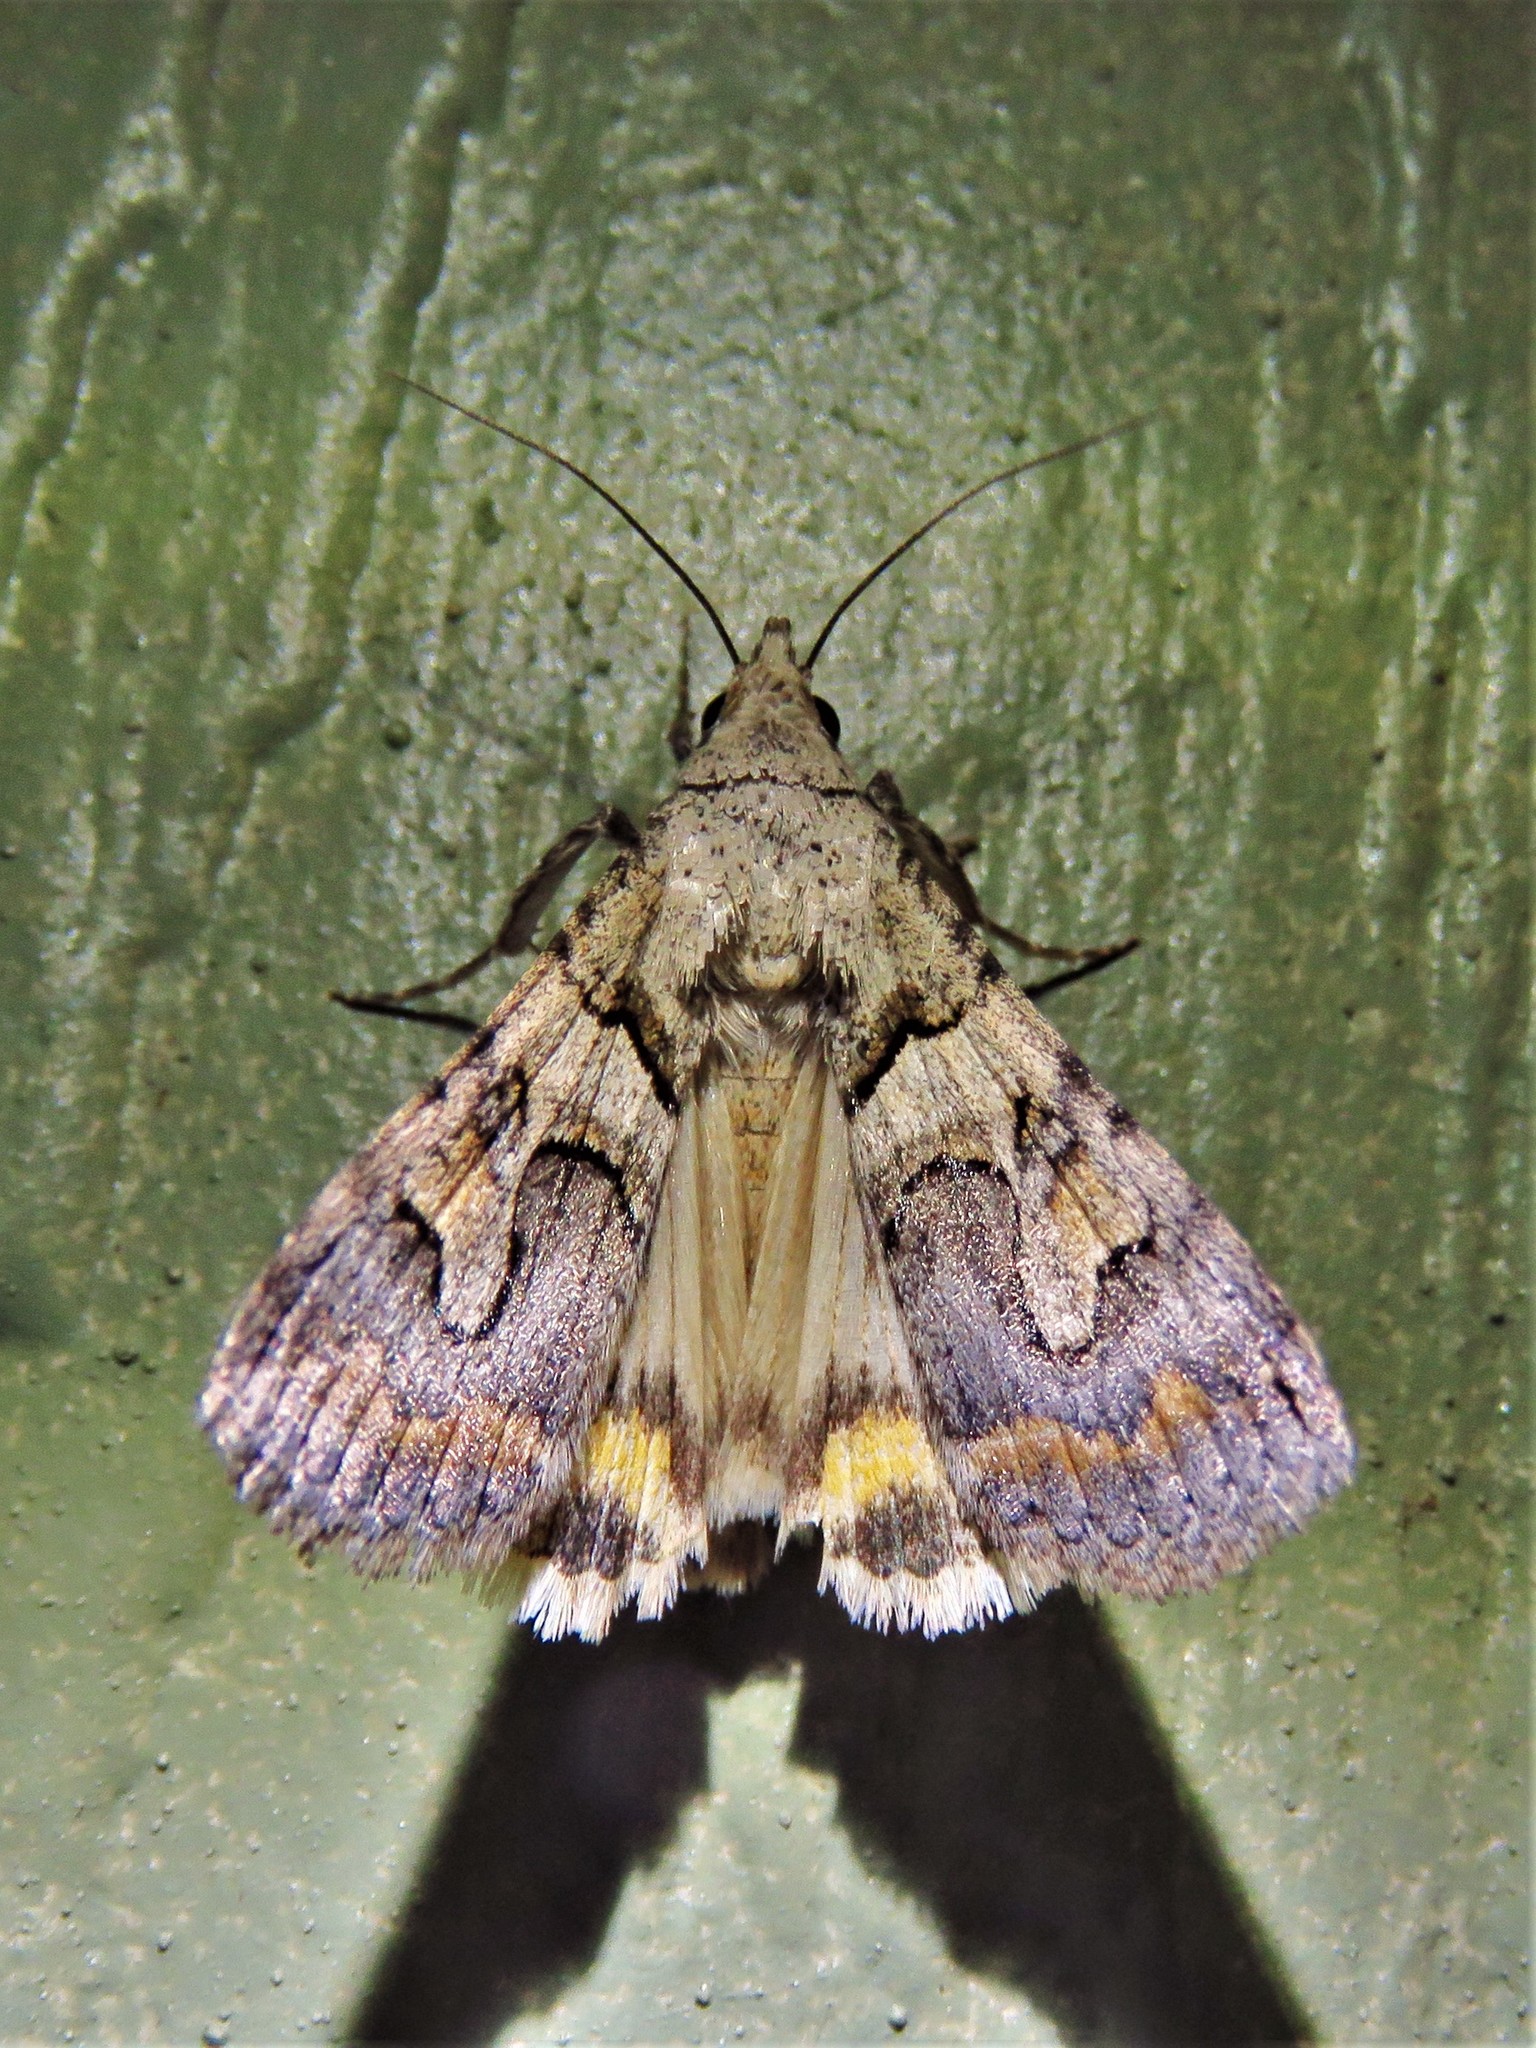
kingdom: Animalia
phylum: Arthropoda
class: Insecta
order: Lepidoptera
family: Erebidae
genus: Bulia
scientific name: Bulia deducta
